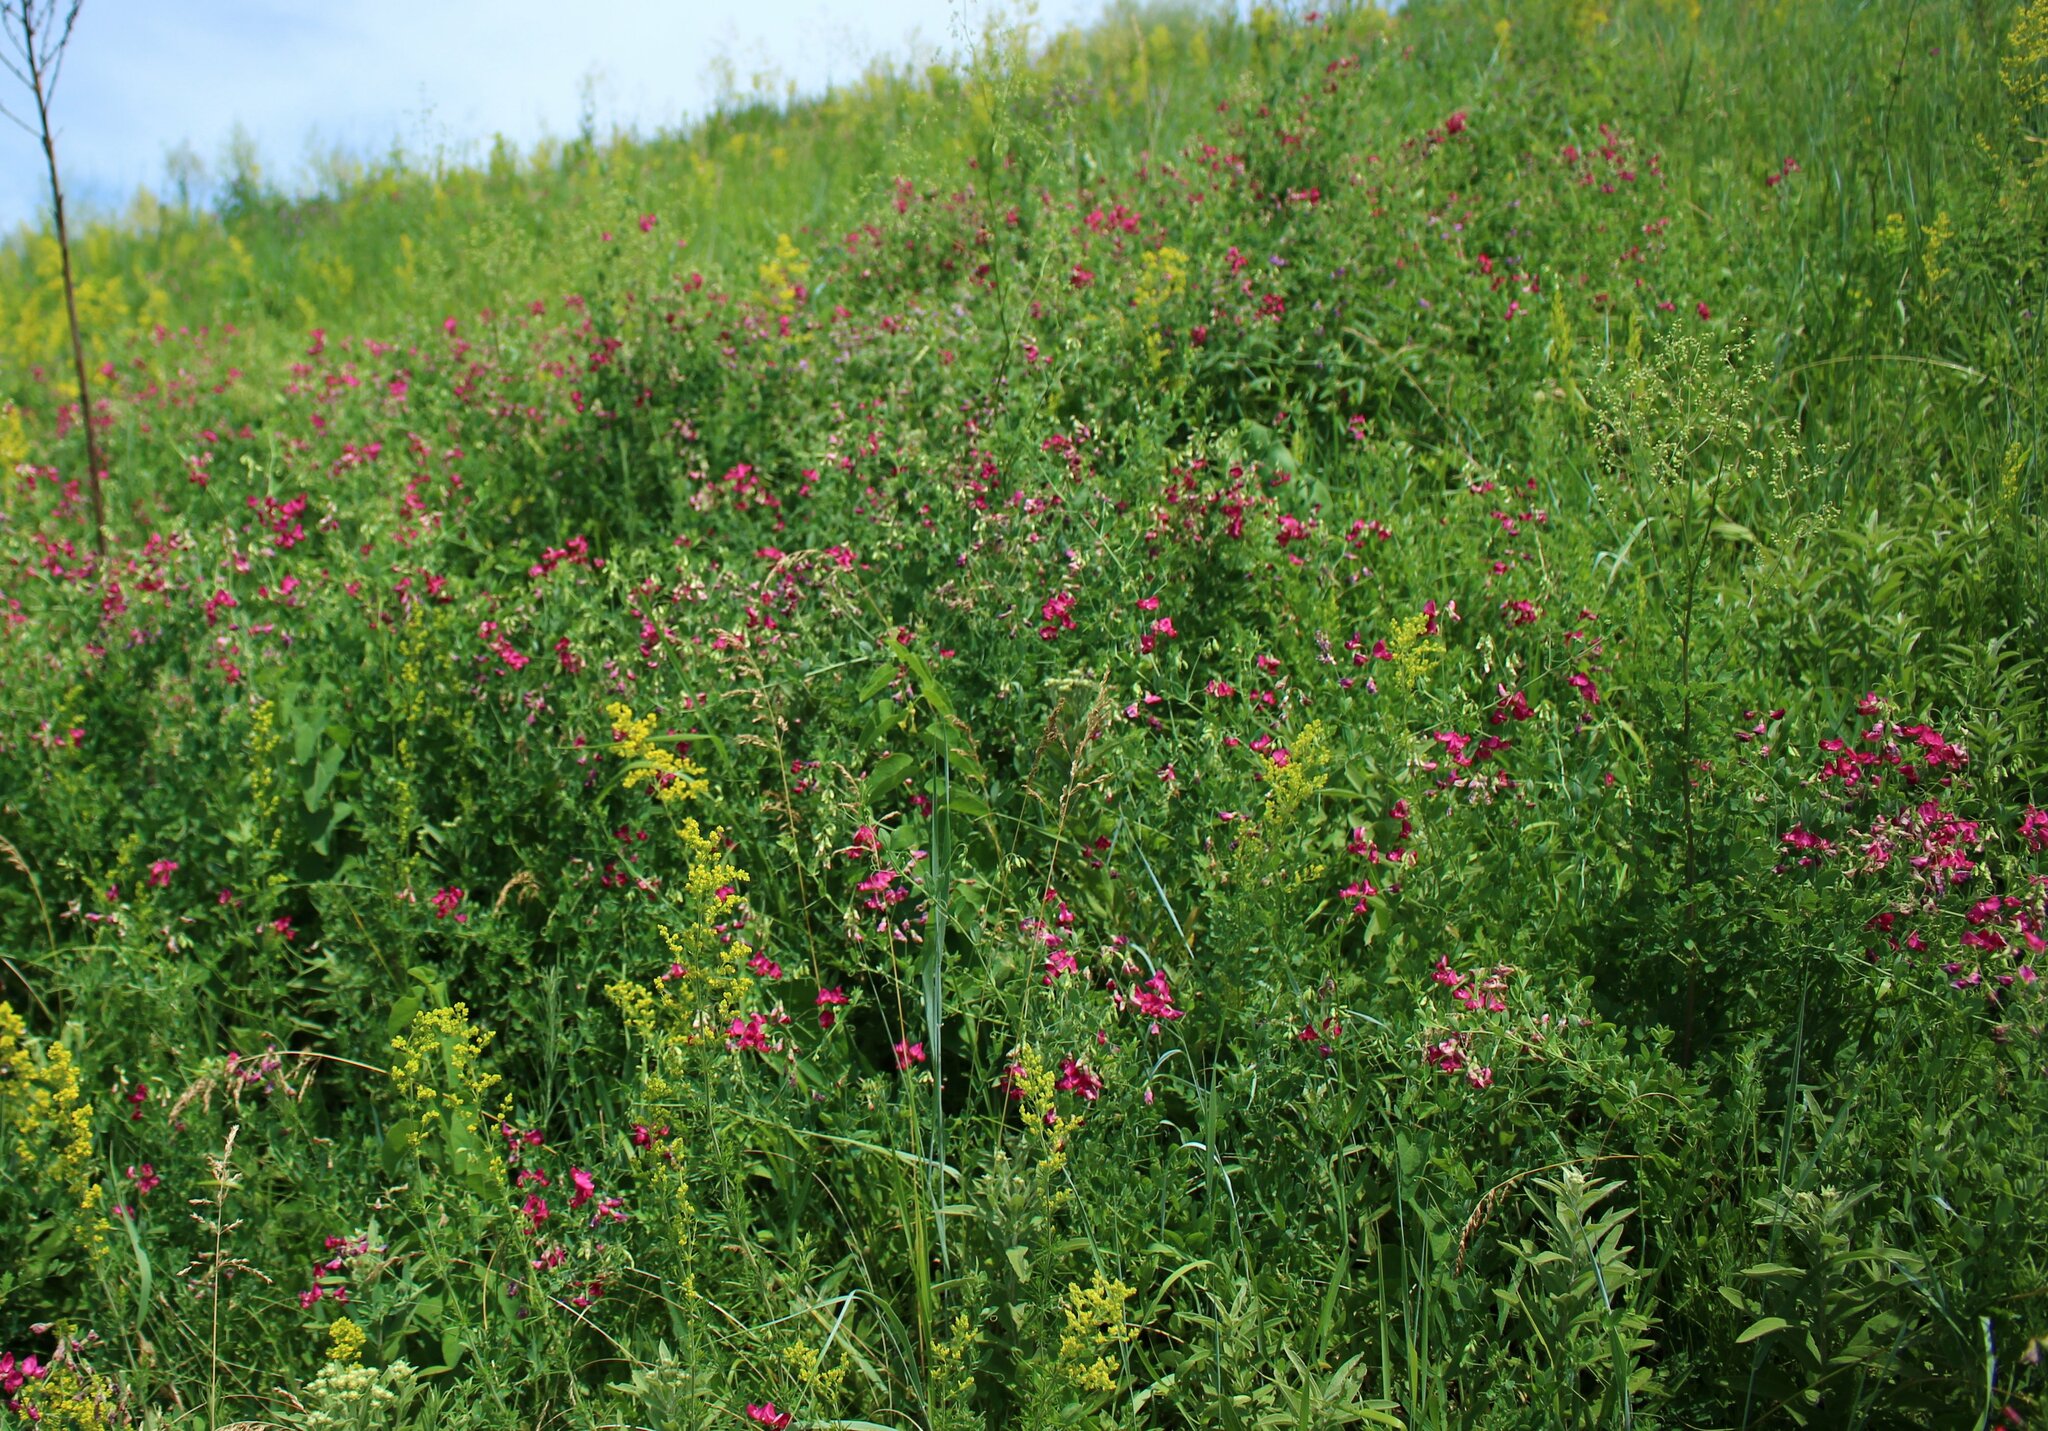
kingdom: Plantae
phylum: Tracheophyta
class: Magnoliopsida
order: Fabales
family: Fabaceae
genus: Lathyrus
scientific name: Lathyrus tuberosus
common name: Tuberous pea
